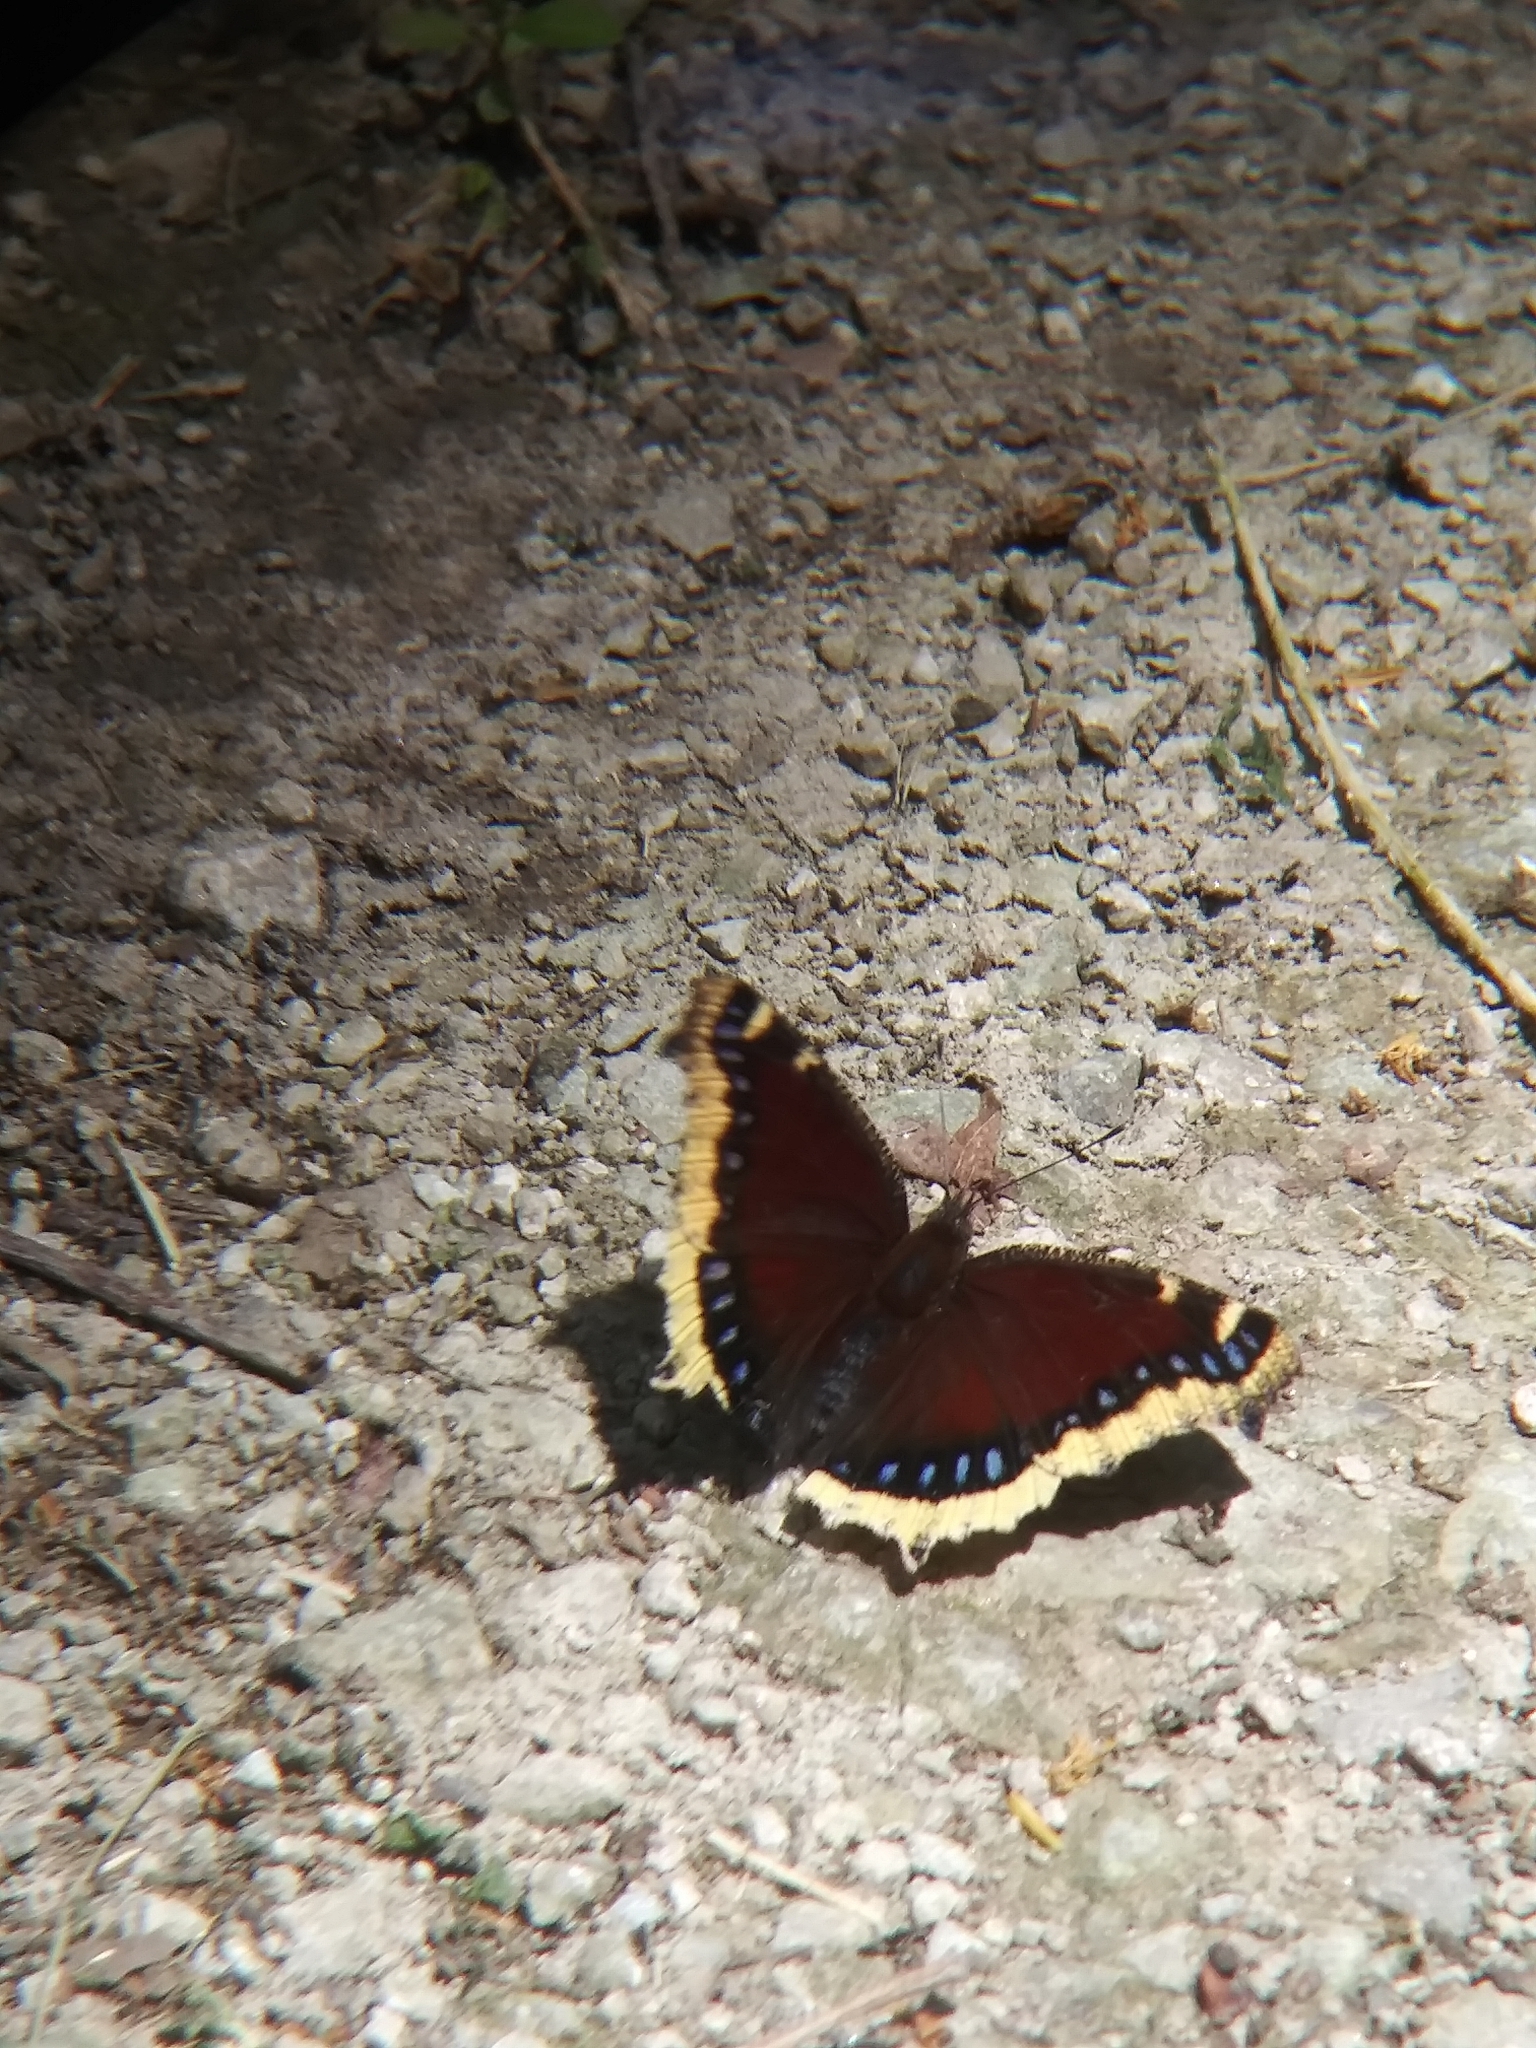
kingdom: Animalia
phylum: Arthropoda
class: Insecta
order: Lepidoptera
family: Nymphalidae
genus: Nymphalis
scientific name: Nymphalis antiopa
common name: Camberwell beauty
